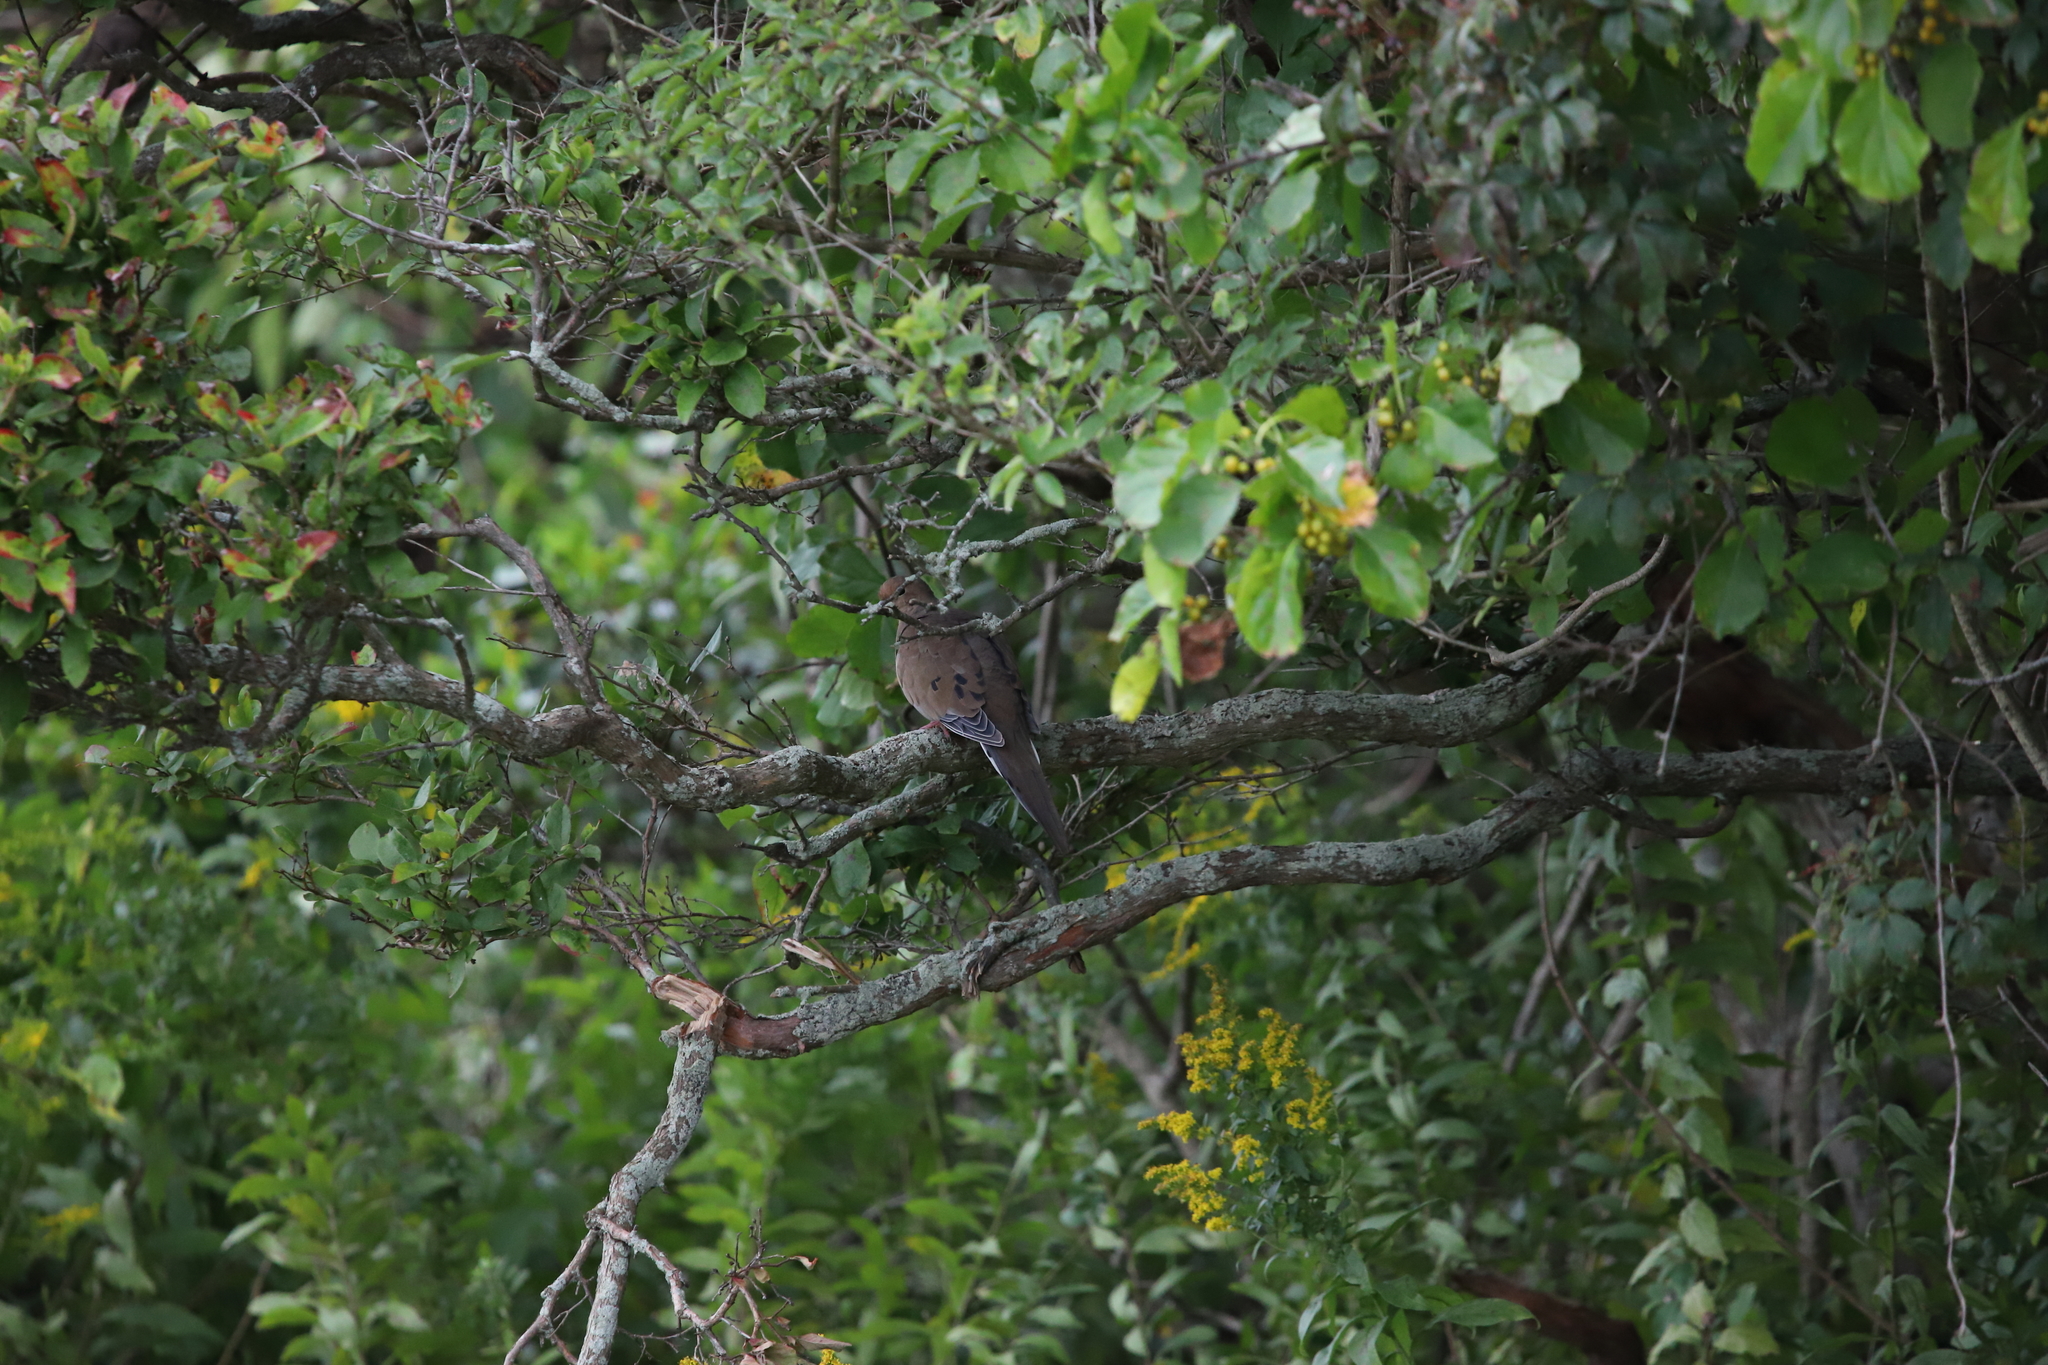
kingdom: Animalia
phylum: Chordata
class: Aves
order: Columbiformes
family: Columbidae
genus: Zenaida
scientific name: Zenaida macroura
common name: Mourning dove
